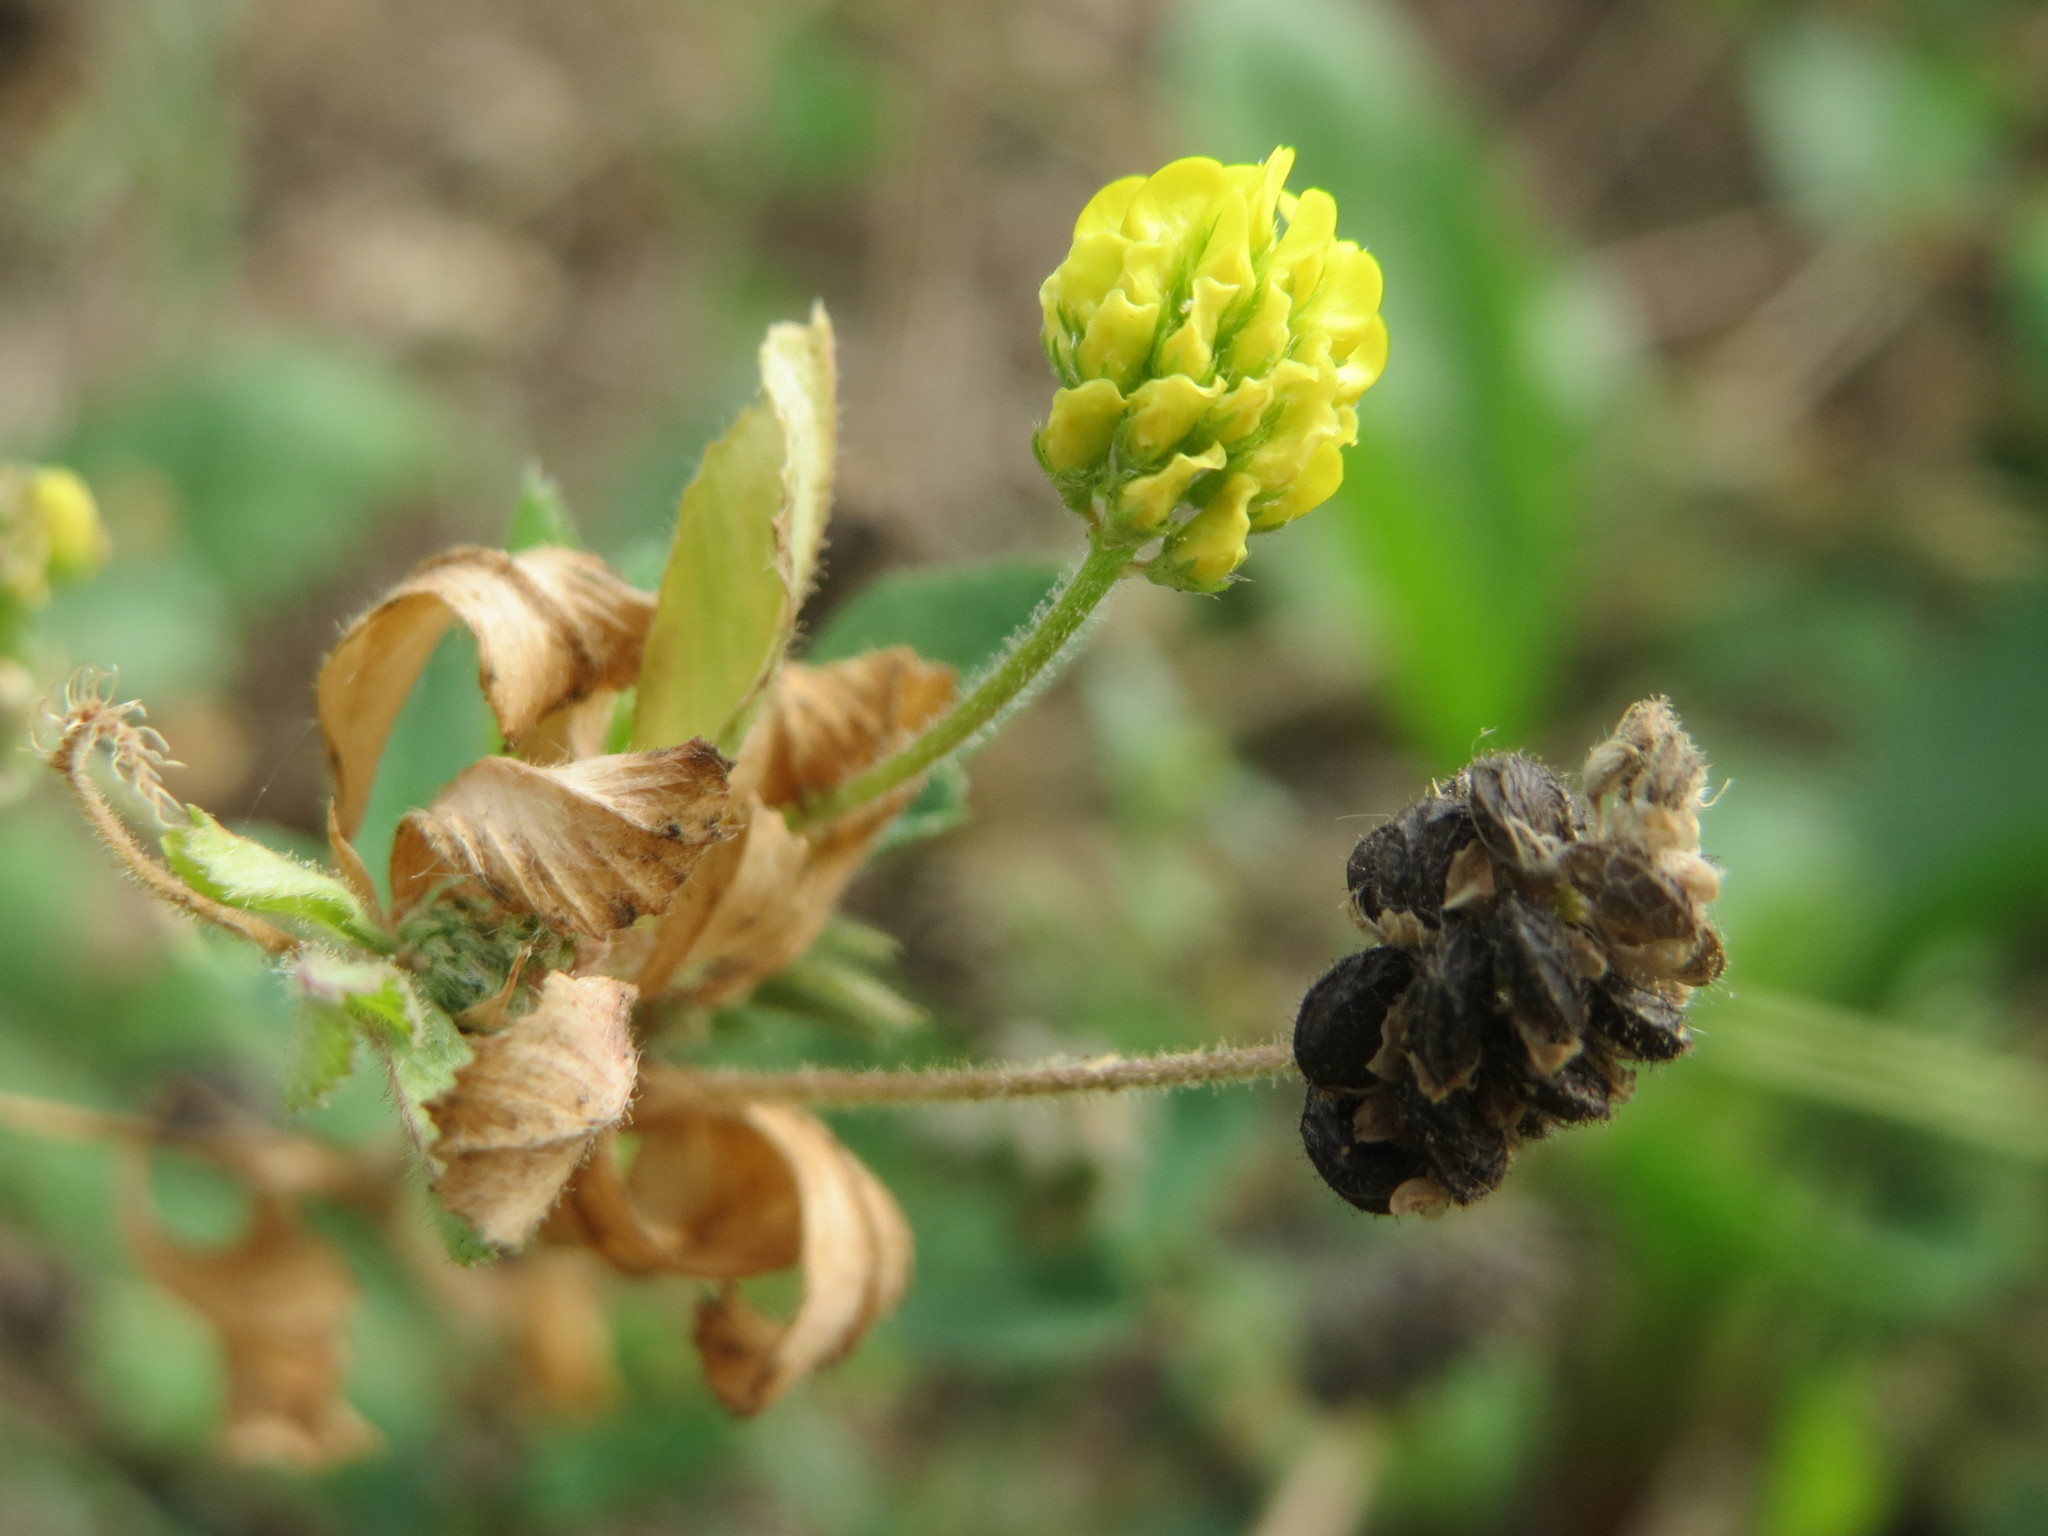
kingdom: Plantae
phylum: Tracheophyta
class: Magnoliopsida
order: Fabales
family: Fabaceae
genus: Medicago
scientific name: Medicago lupulina
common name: Black medick
